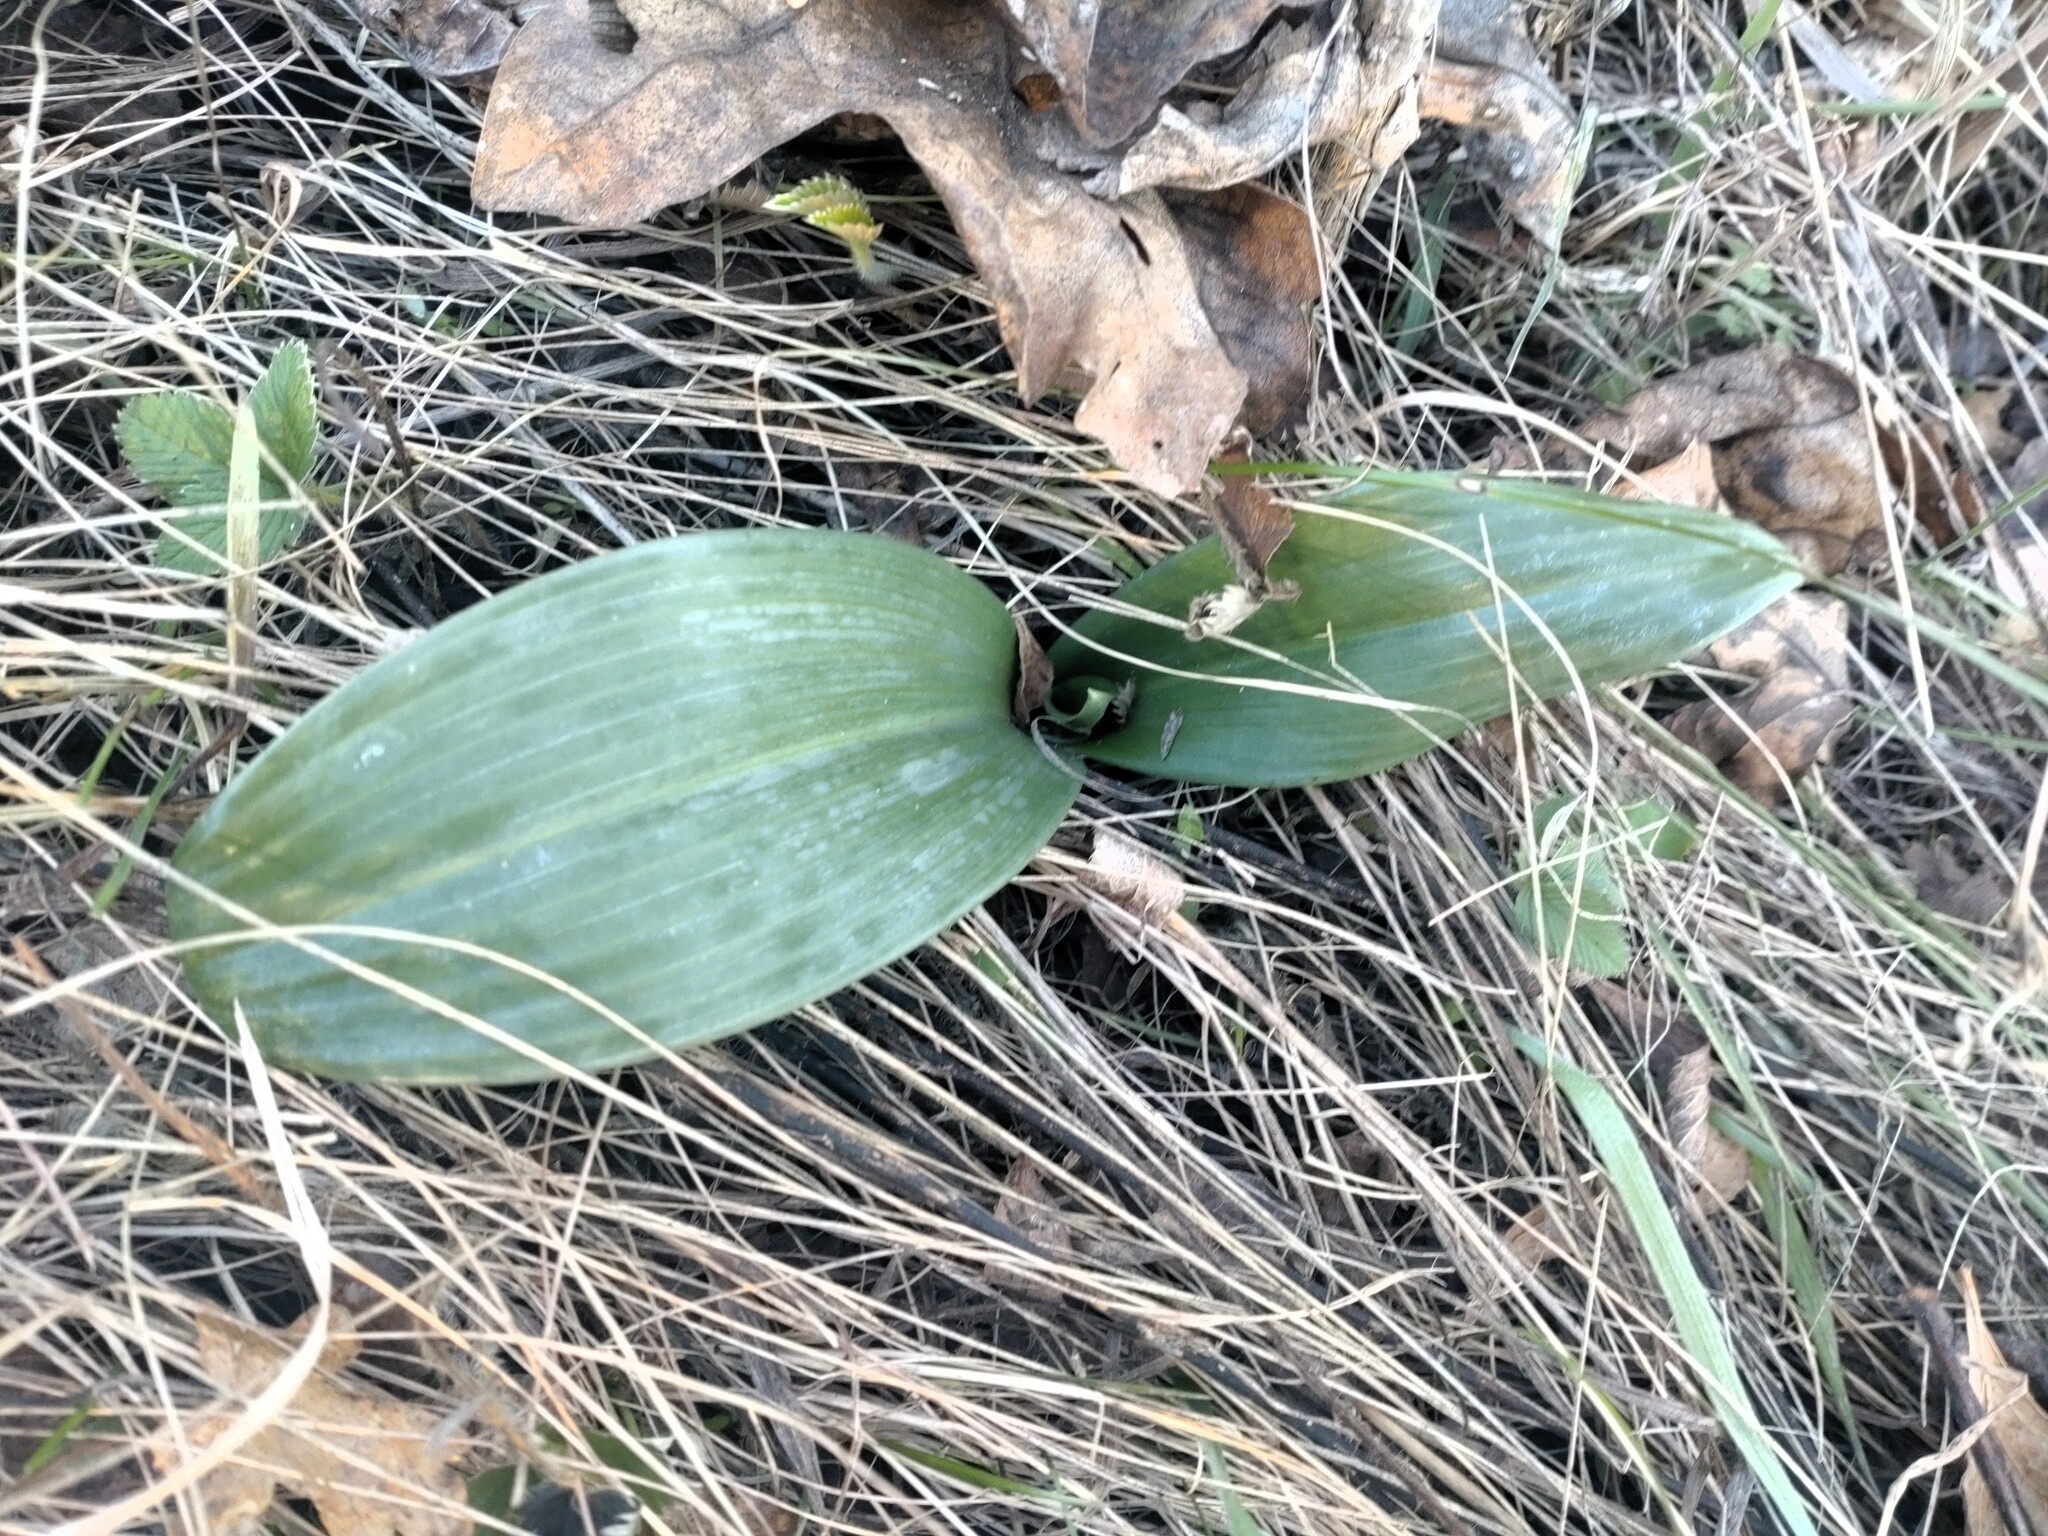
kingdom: Plantae
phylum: Tracheophyta
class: Liliopsida
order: Asparagales
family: Orchidaceae
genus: Himantoglossum
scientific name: Himantoglossum adriaticum
